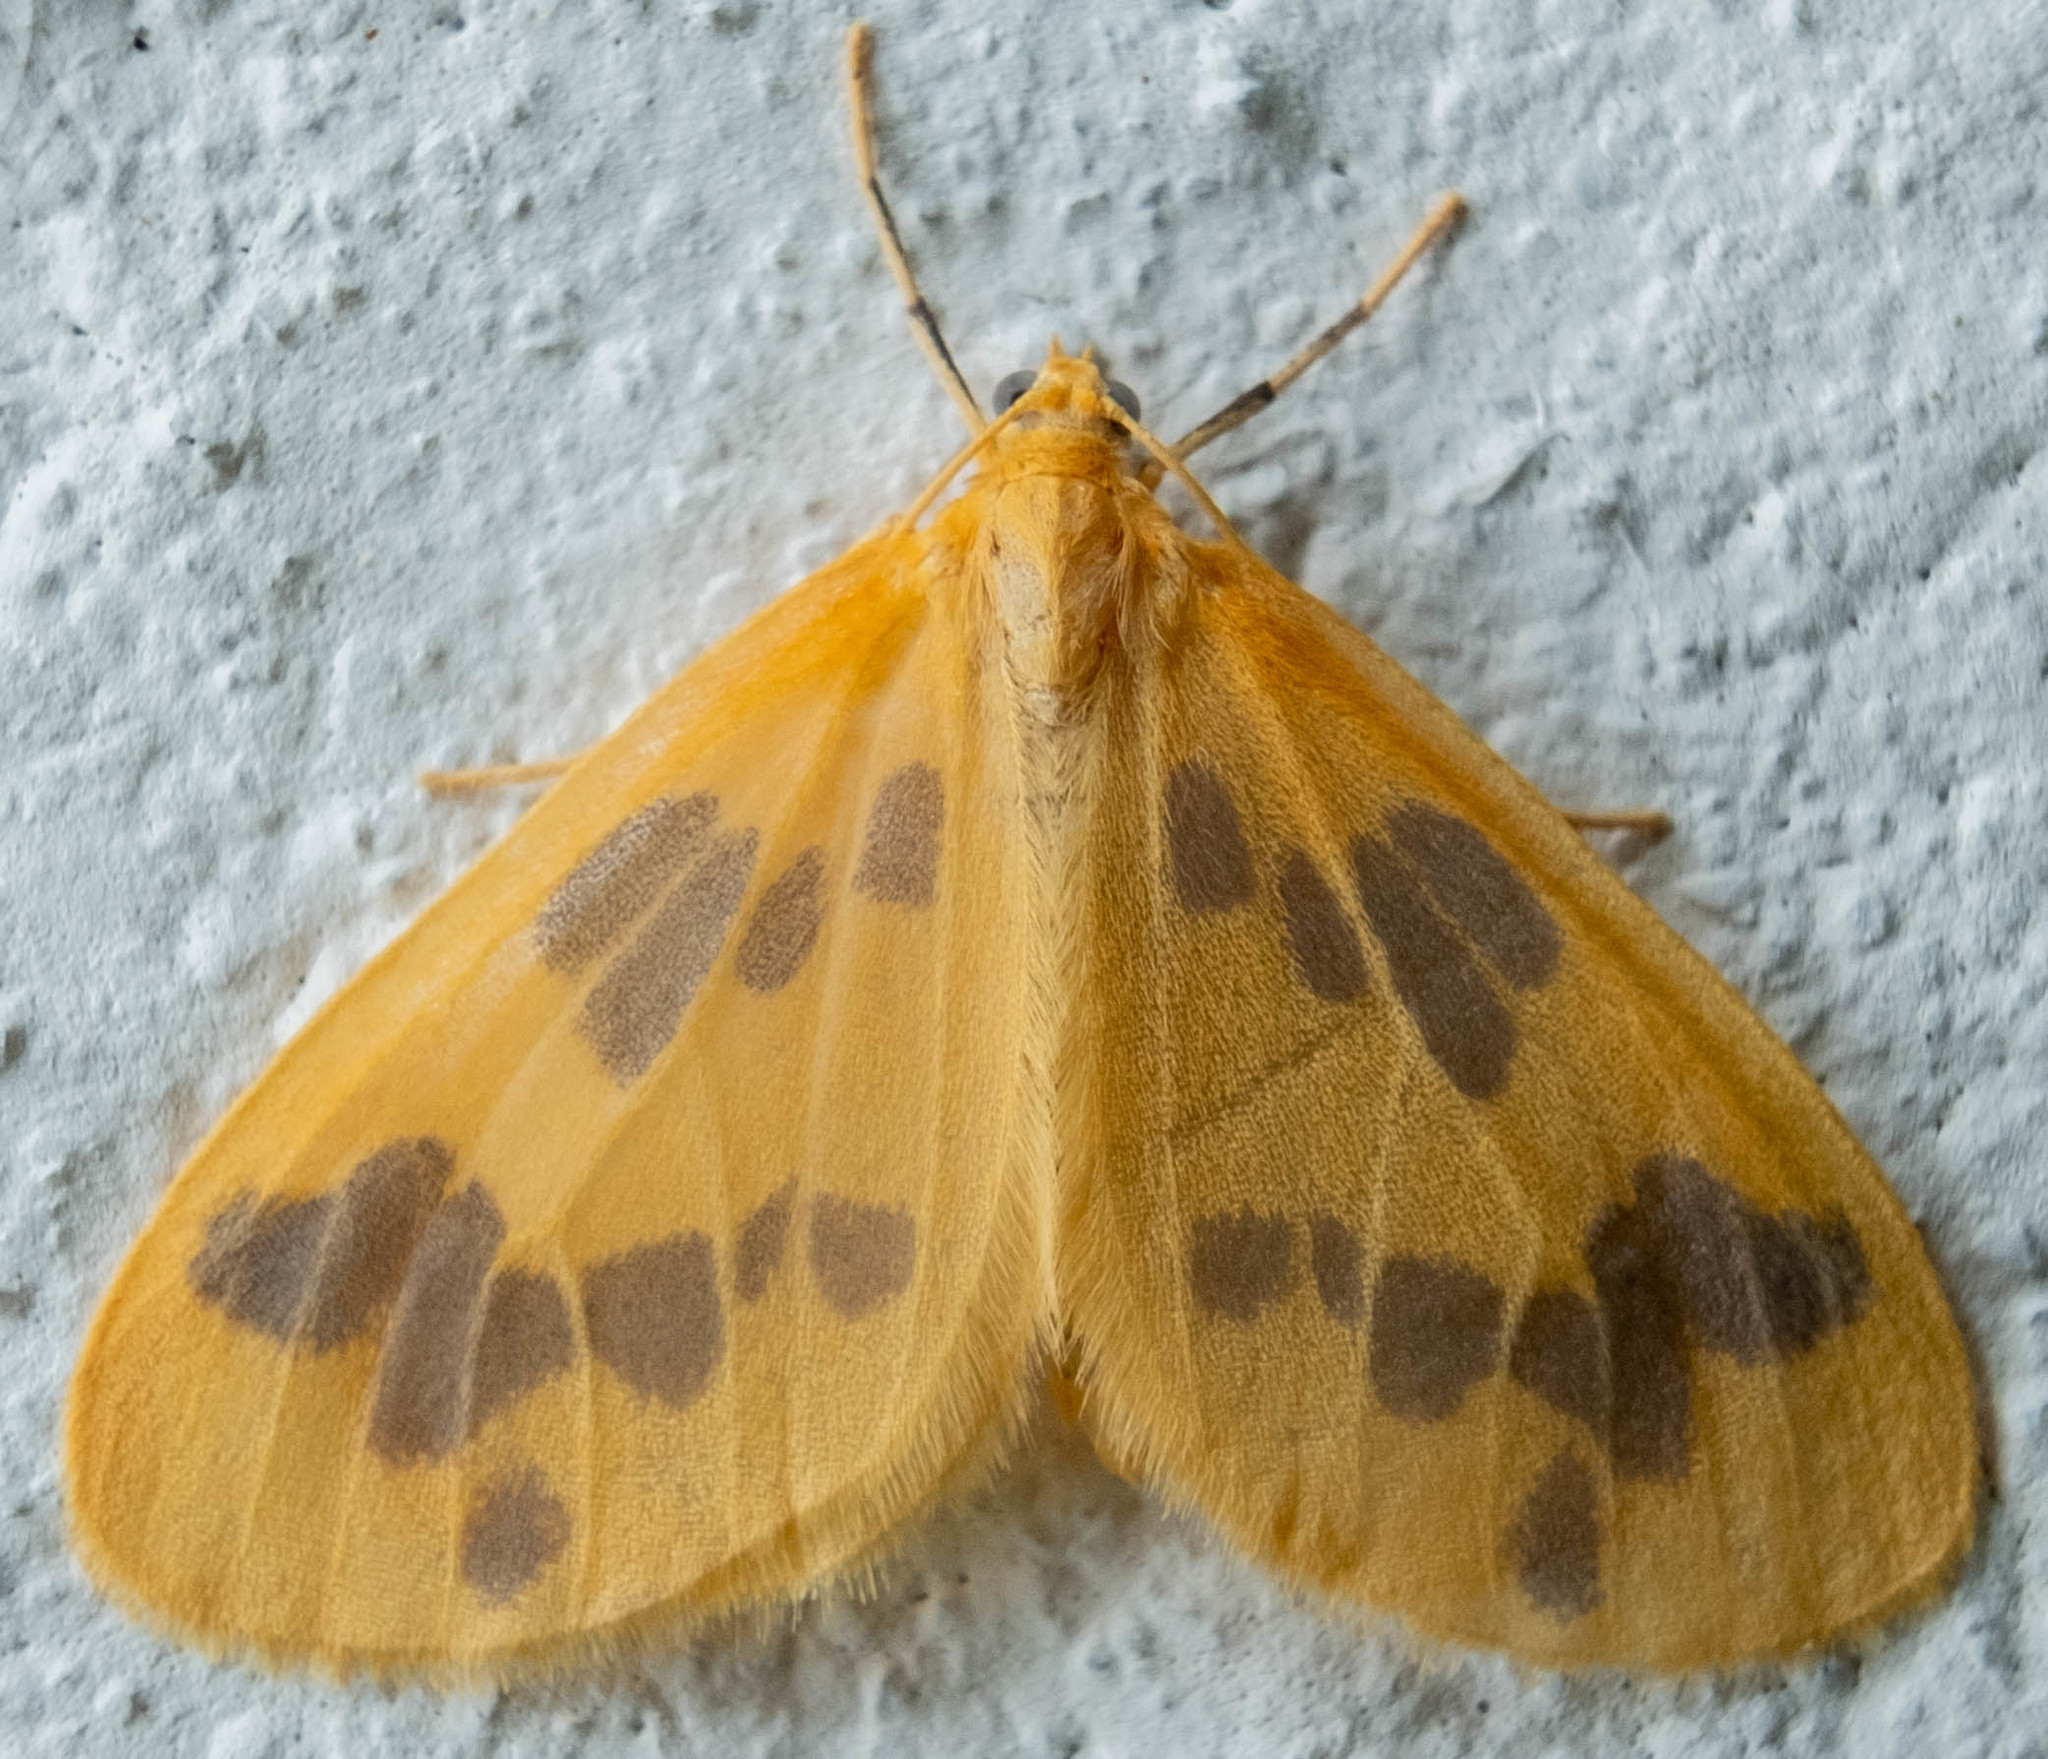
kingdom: Animalia
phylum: Arthropoda
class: Insecta
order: Lepidoptera
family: Geometridae
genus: Eubaphe
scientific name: Eubaphe mendica
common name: Beggar
